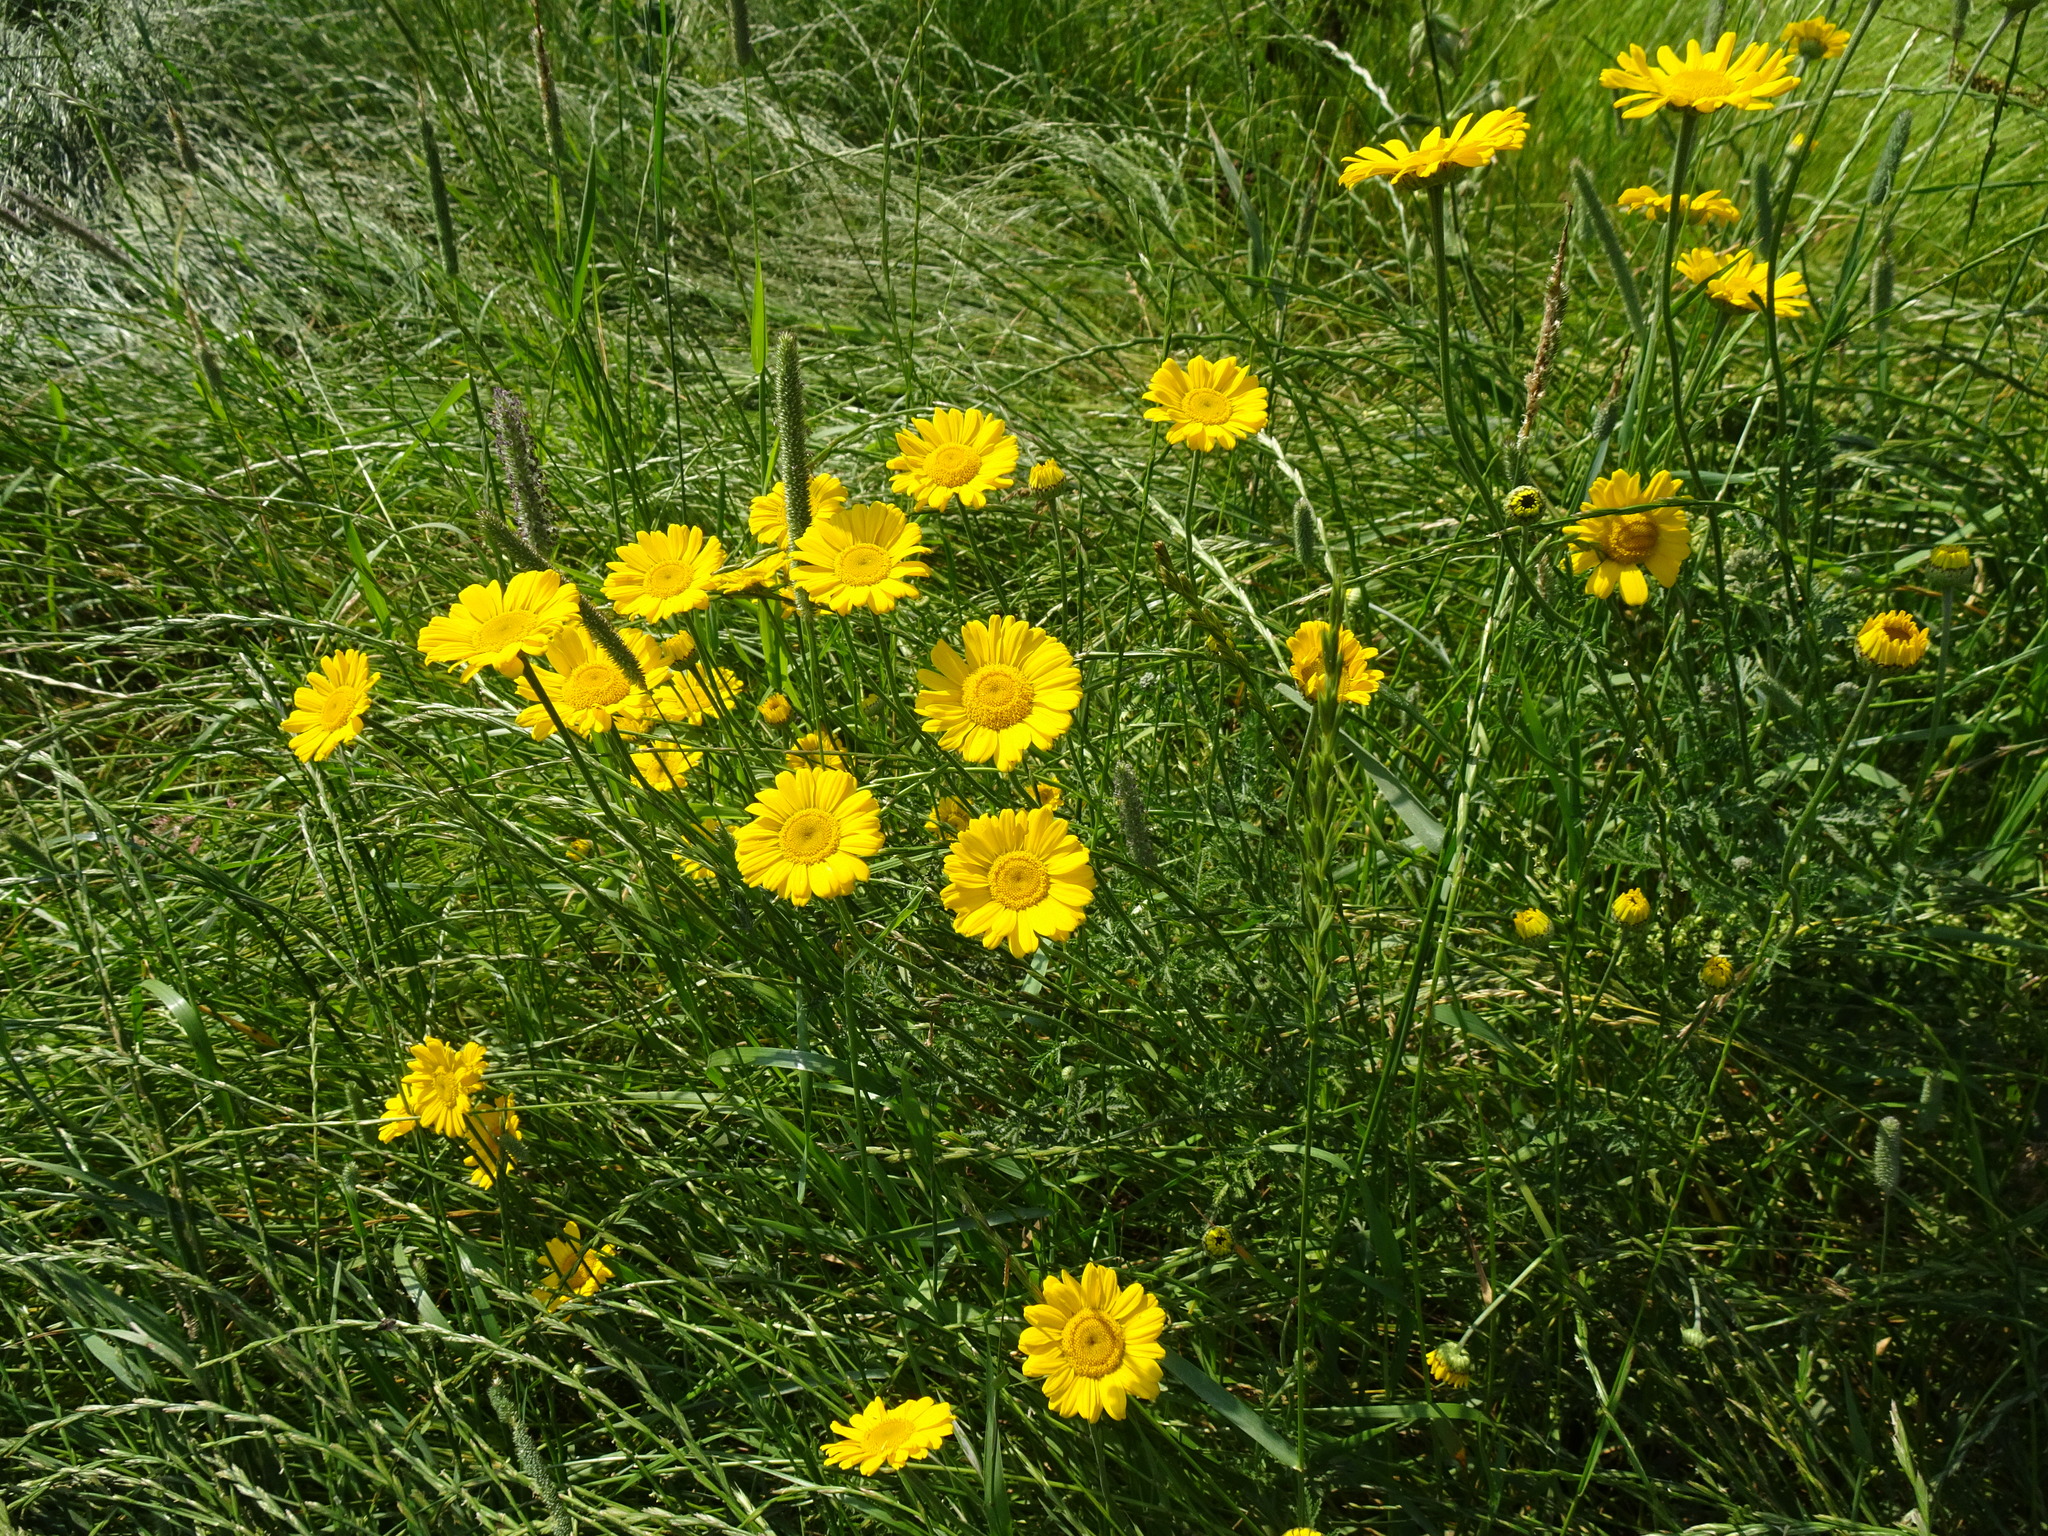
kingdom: Plantae
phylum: Tracheophyta
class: Magnoliopsida
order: Asterales
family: Asteraceae
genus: Cota
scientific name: Cota tinctoria
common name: Golden chamomile
